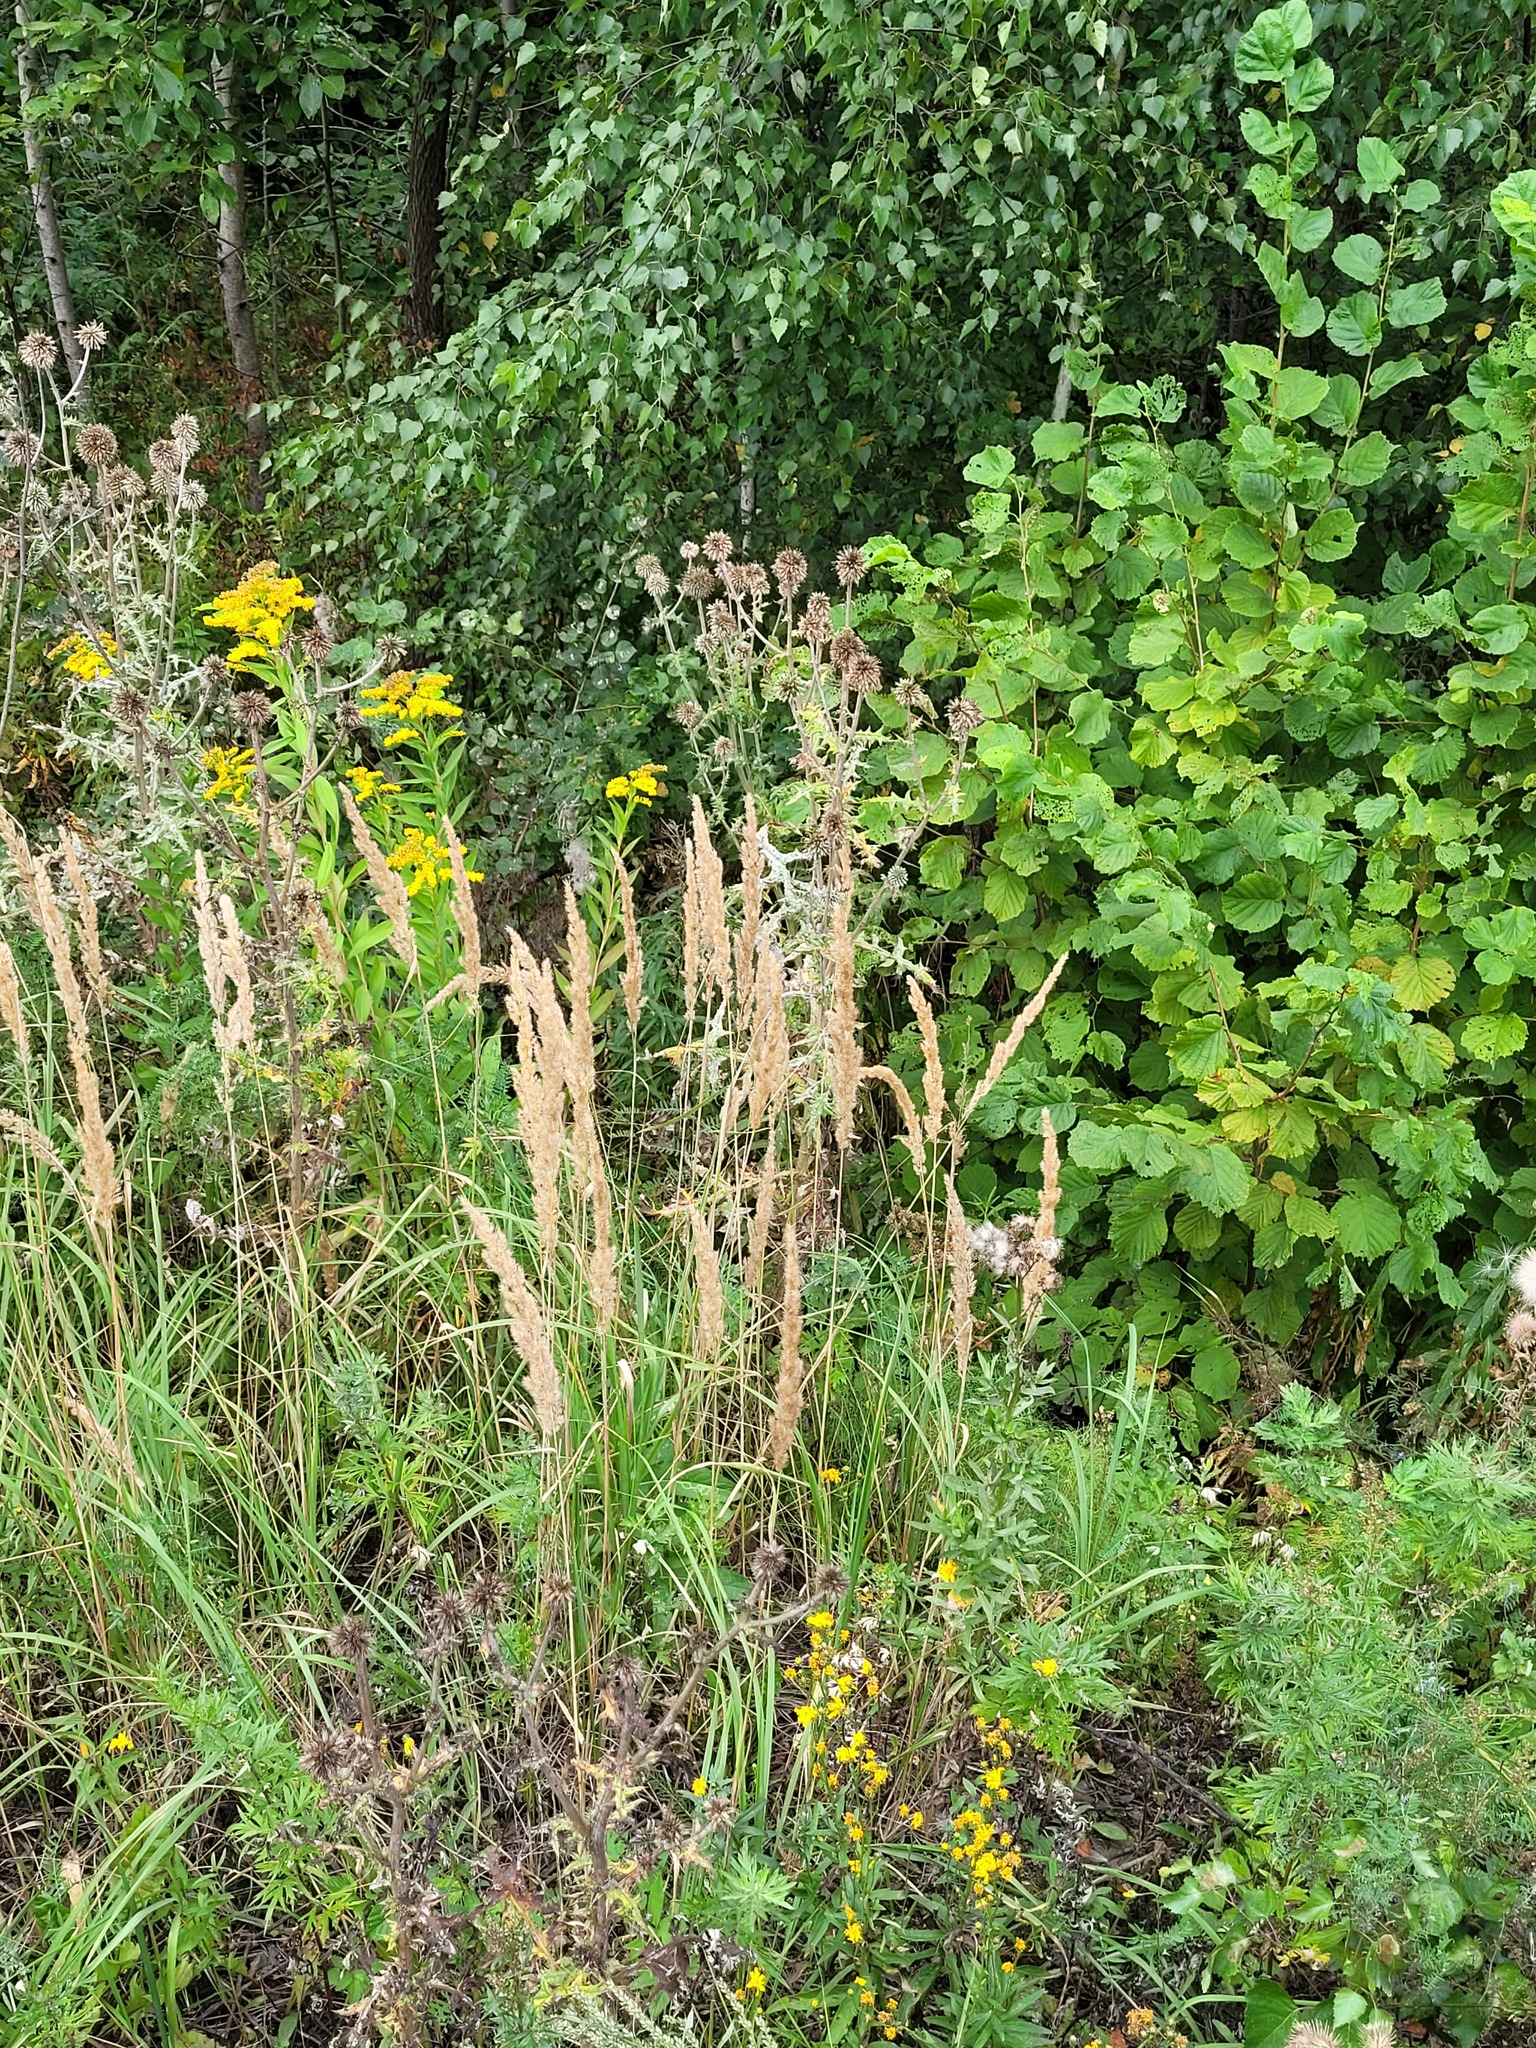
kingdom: Plantae
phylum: Tracheophyta
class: Liliopsida
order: Poales
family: Poaceae
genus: Calamagrostis
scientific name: Calamagrostis epigejos
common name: Wood small-reed
